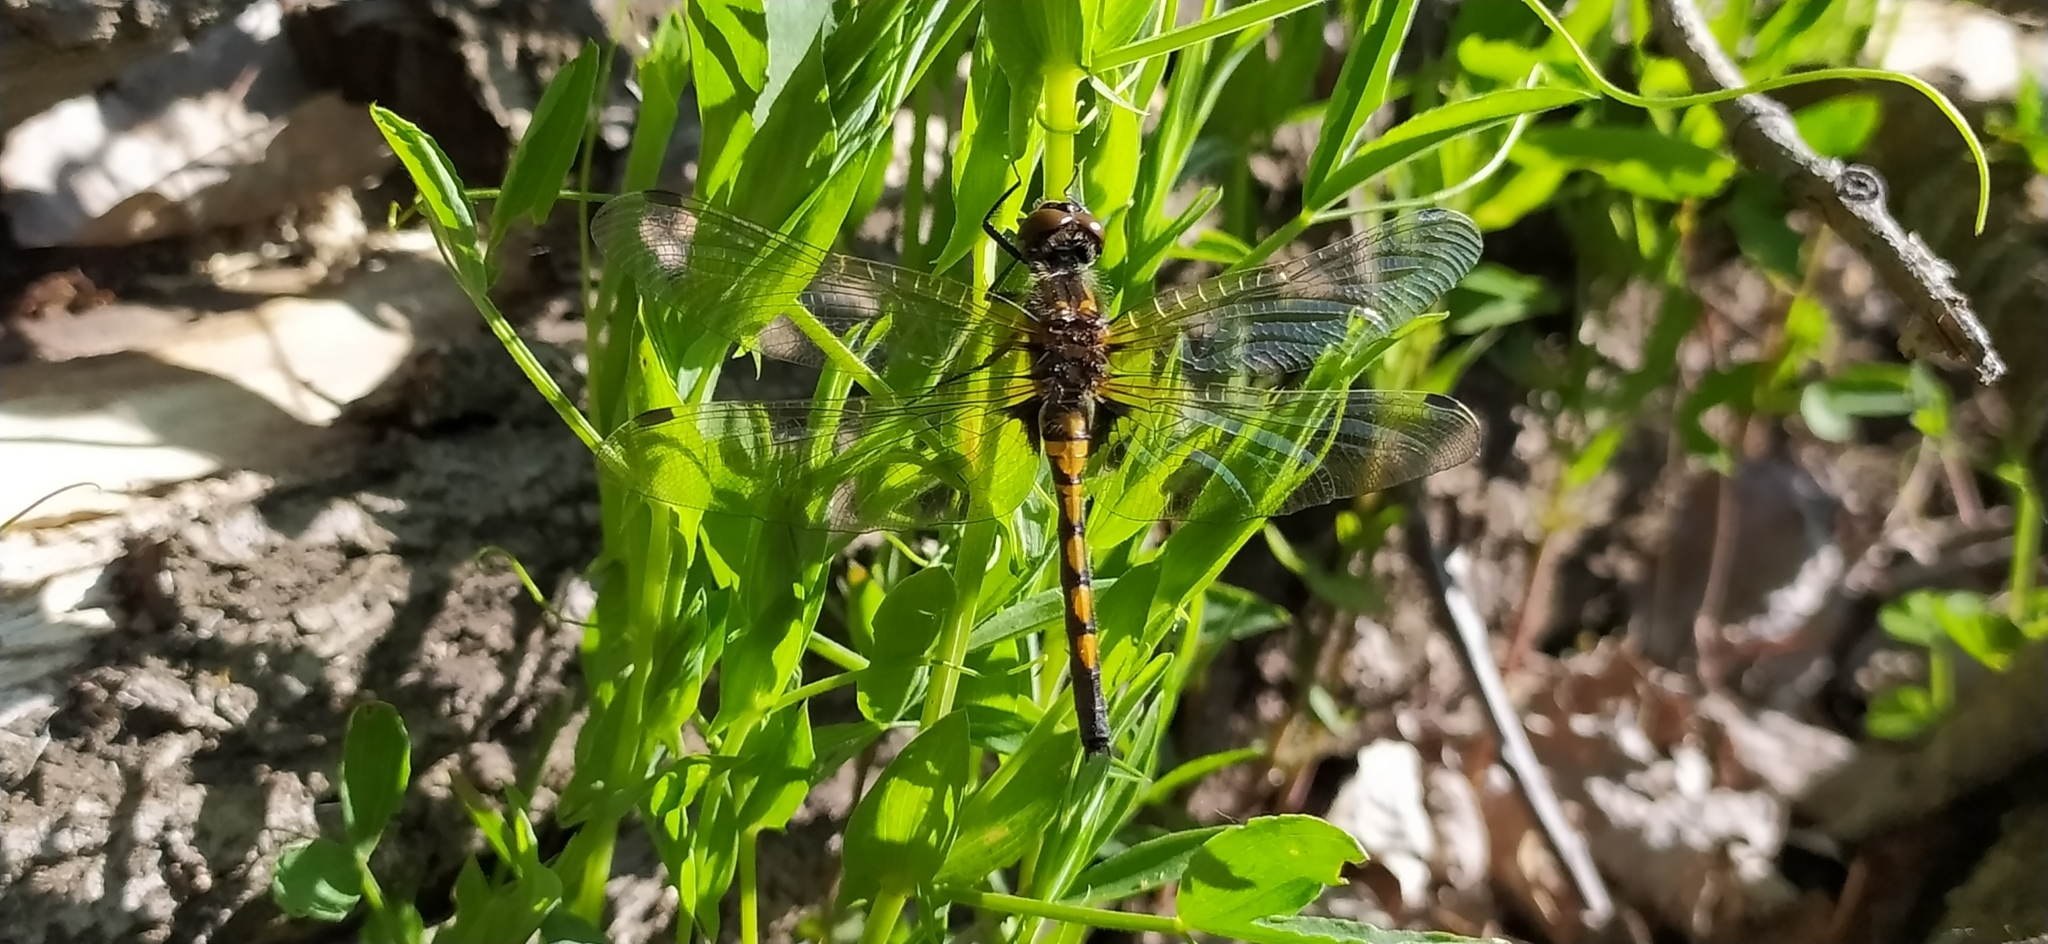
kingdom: Animalia
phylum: Arthropoda
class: Insecta
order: Odonata
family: Libellulidae
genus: Leucorrhinia
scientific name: Leucorrhinia rubicunda
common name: Ruby whiteface
